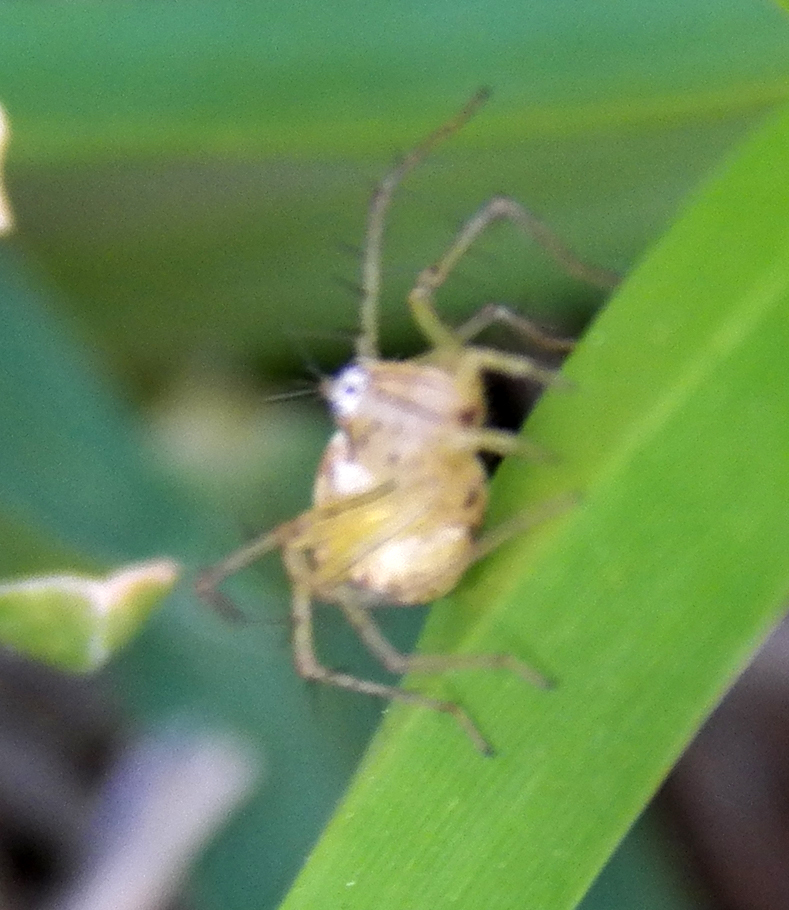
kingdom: Animalia
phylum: Arthropoda
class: Arachnida
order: Araneae
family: Oxyopidae
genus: Oxyopes
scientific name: Oxyopes salticus
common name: Lynx spiders
